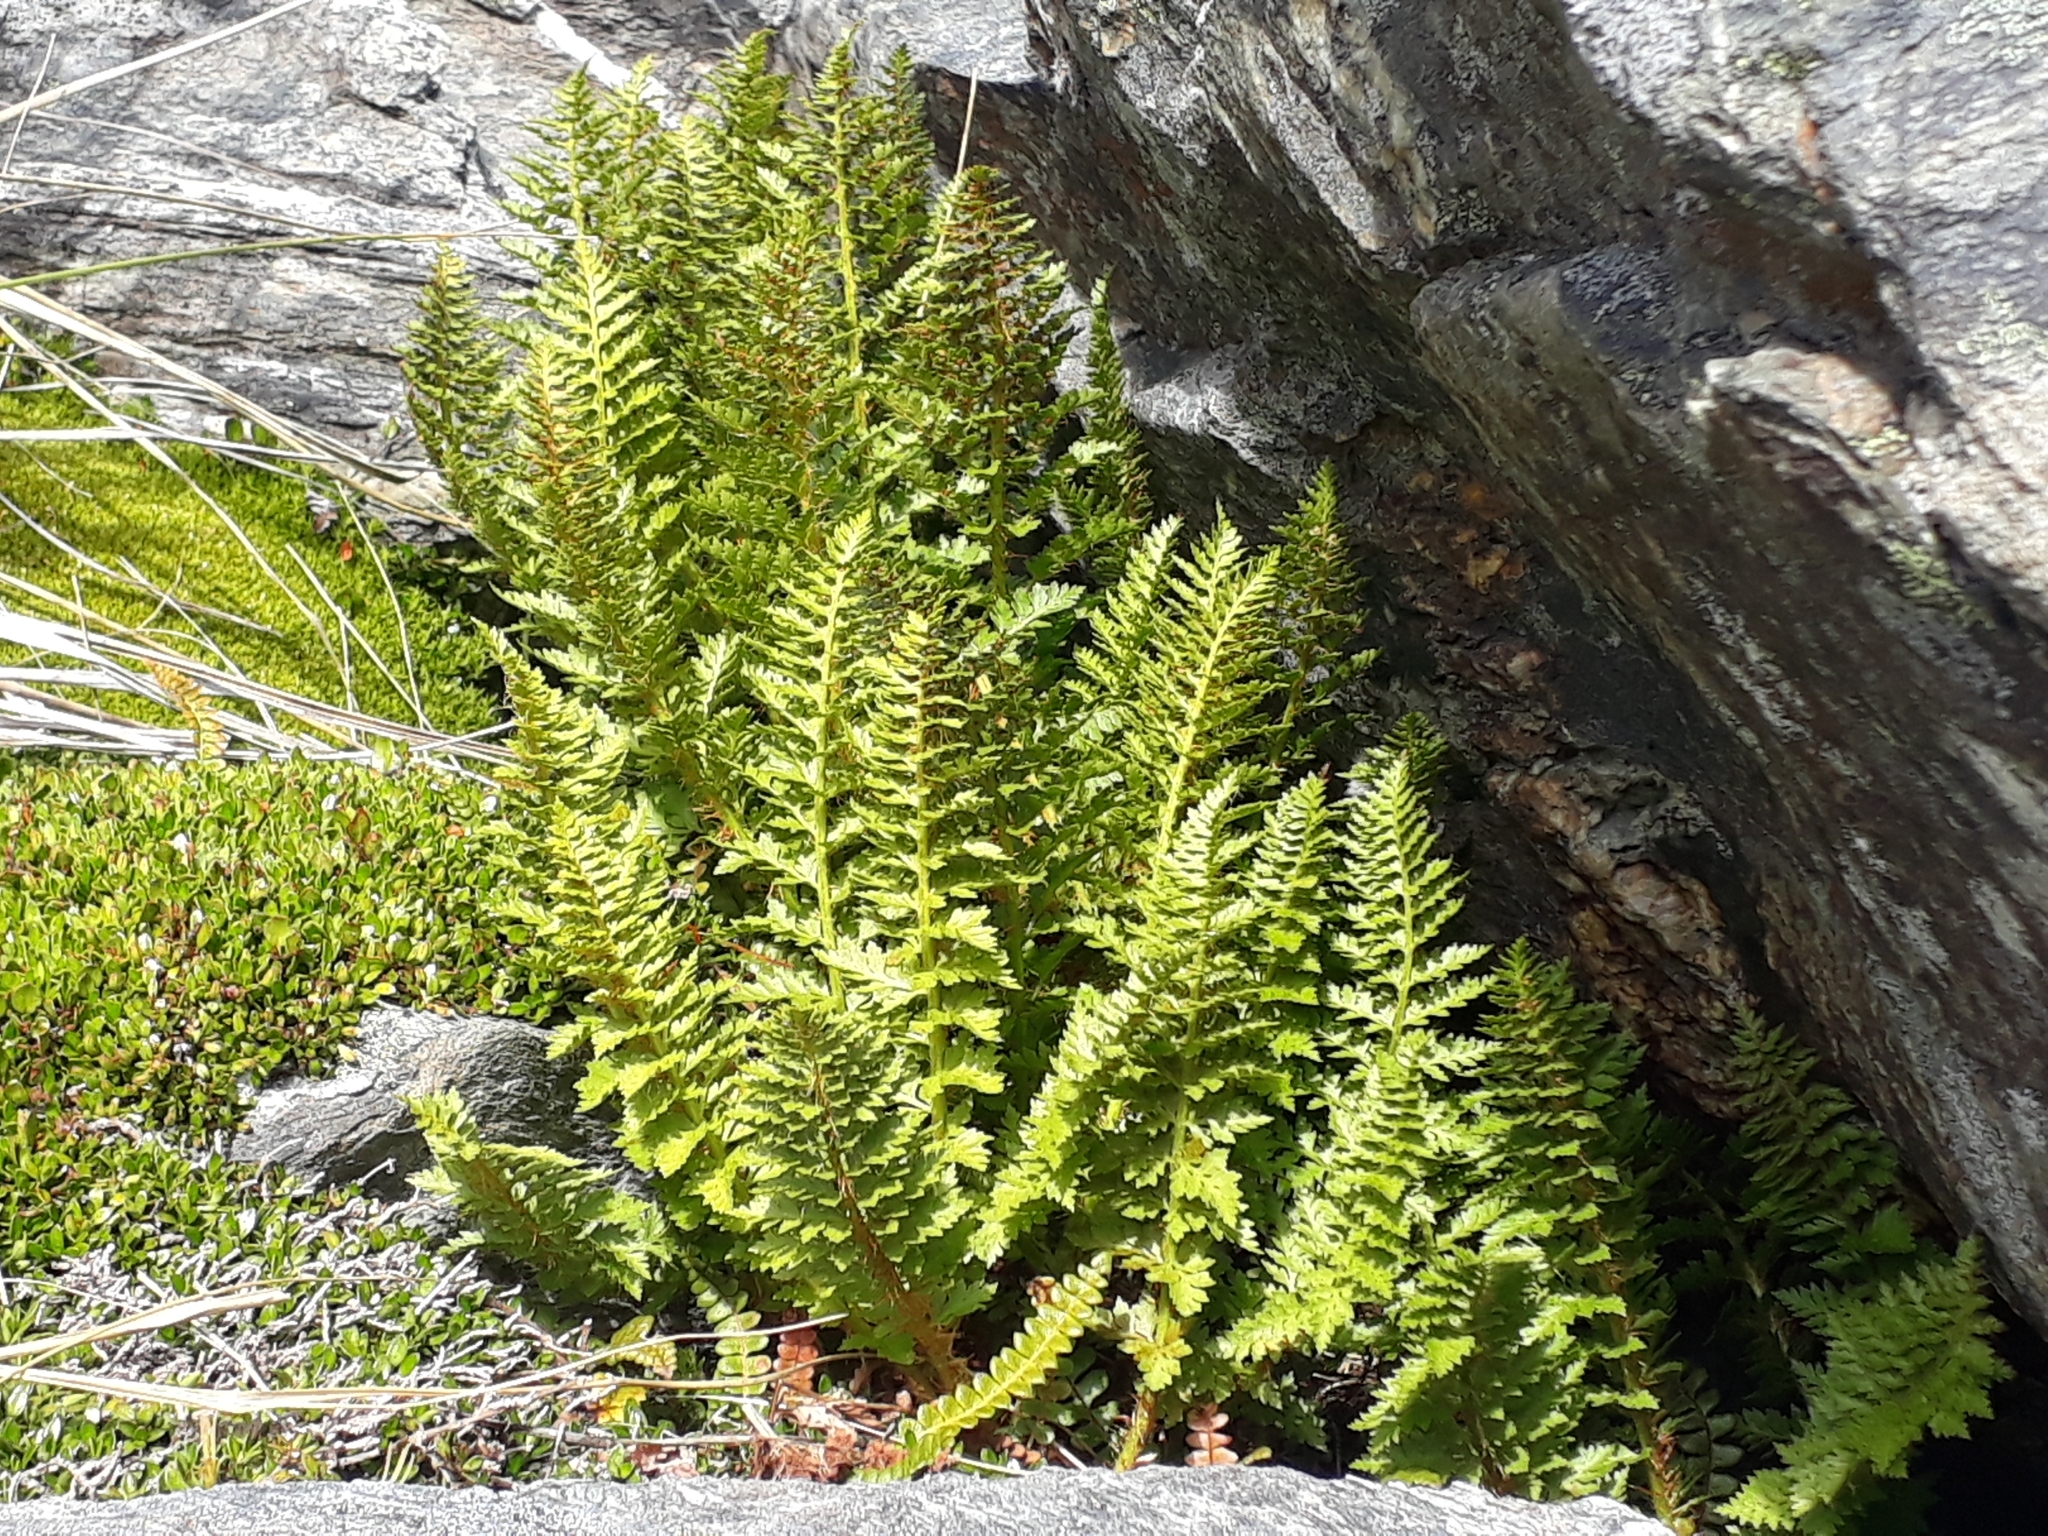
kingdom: Plantae
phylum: Tracheophyta
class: Polypodiopsida
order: Polypodiales
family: Dryopteridaceae
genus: Polystichum
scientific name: Polystichum cystostegia
